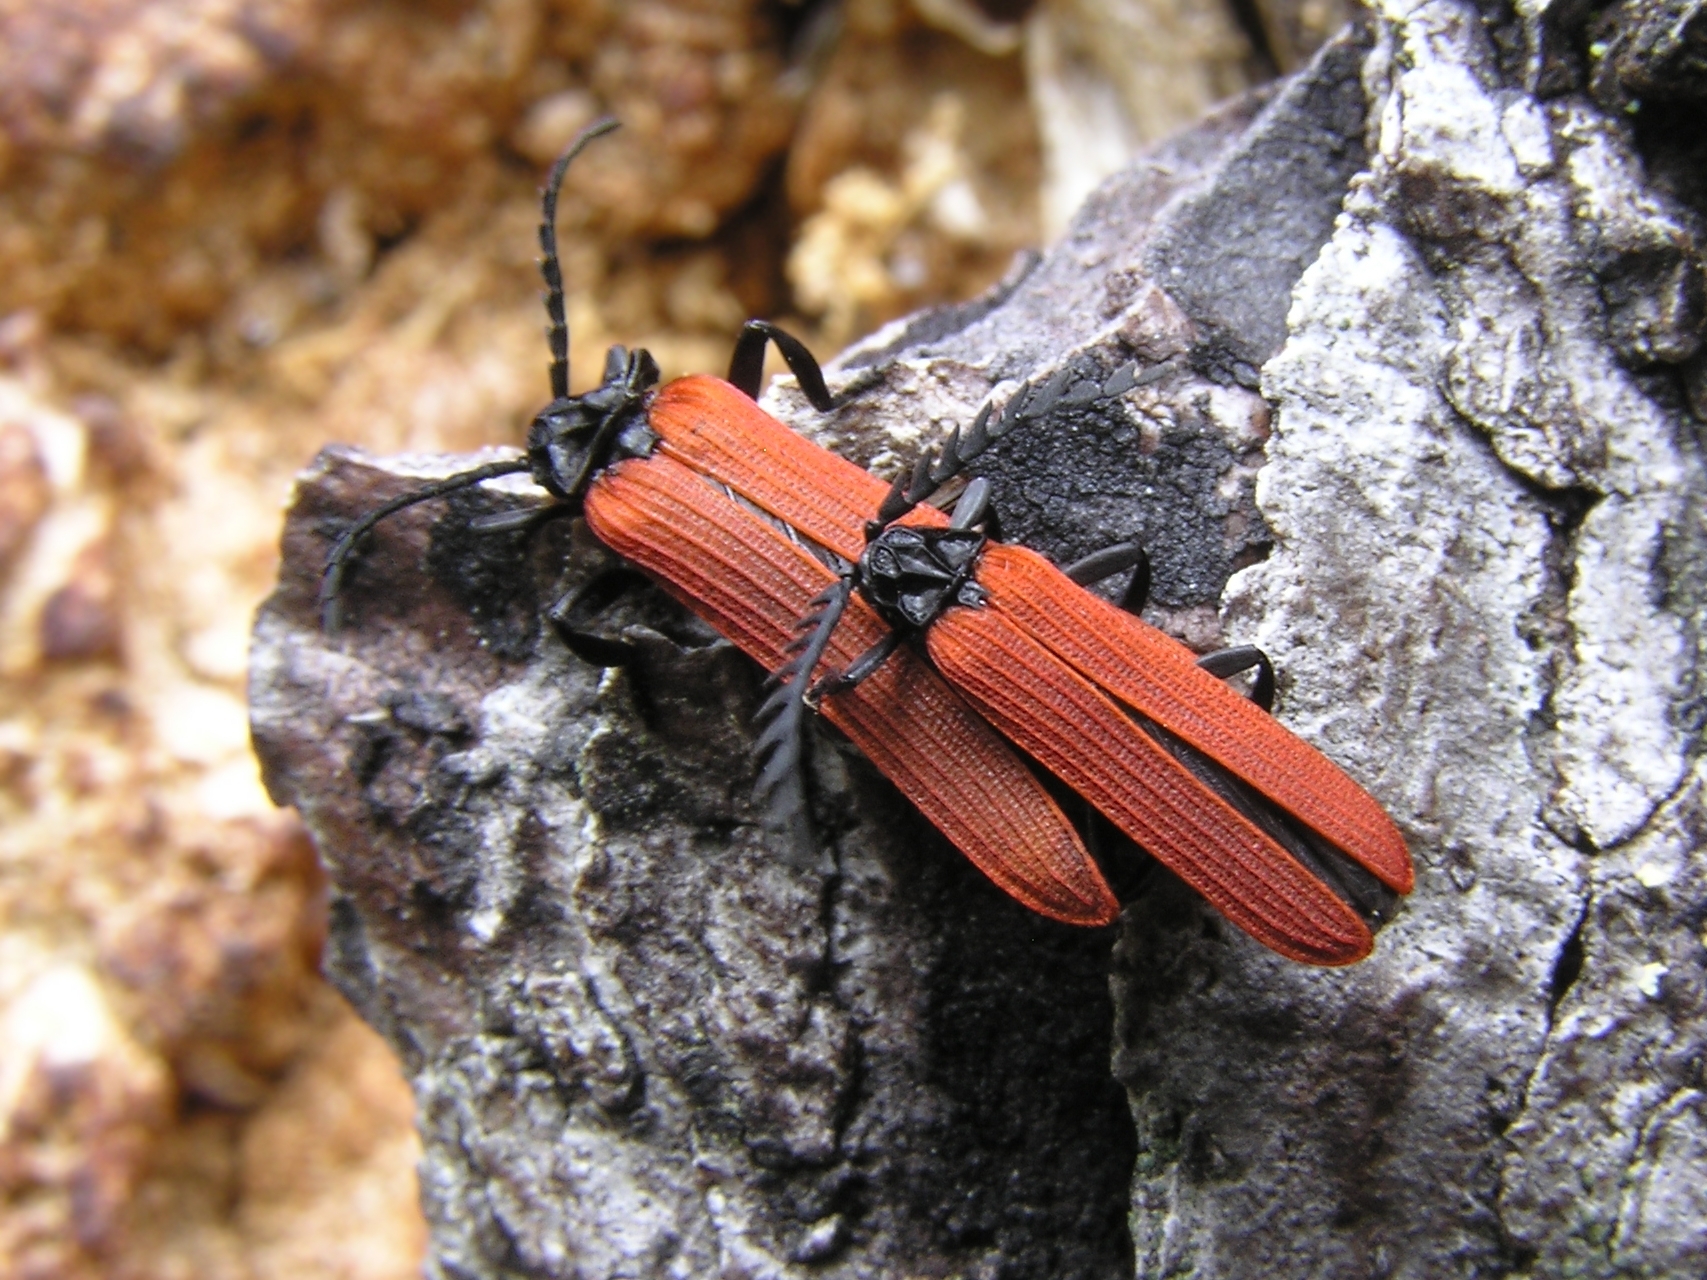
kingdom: Animalia
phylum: Arthropoda
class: Insecta
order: Coleoptera
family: Lycidae
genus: Porrostoma
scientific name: Porrostoma rufipenne
